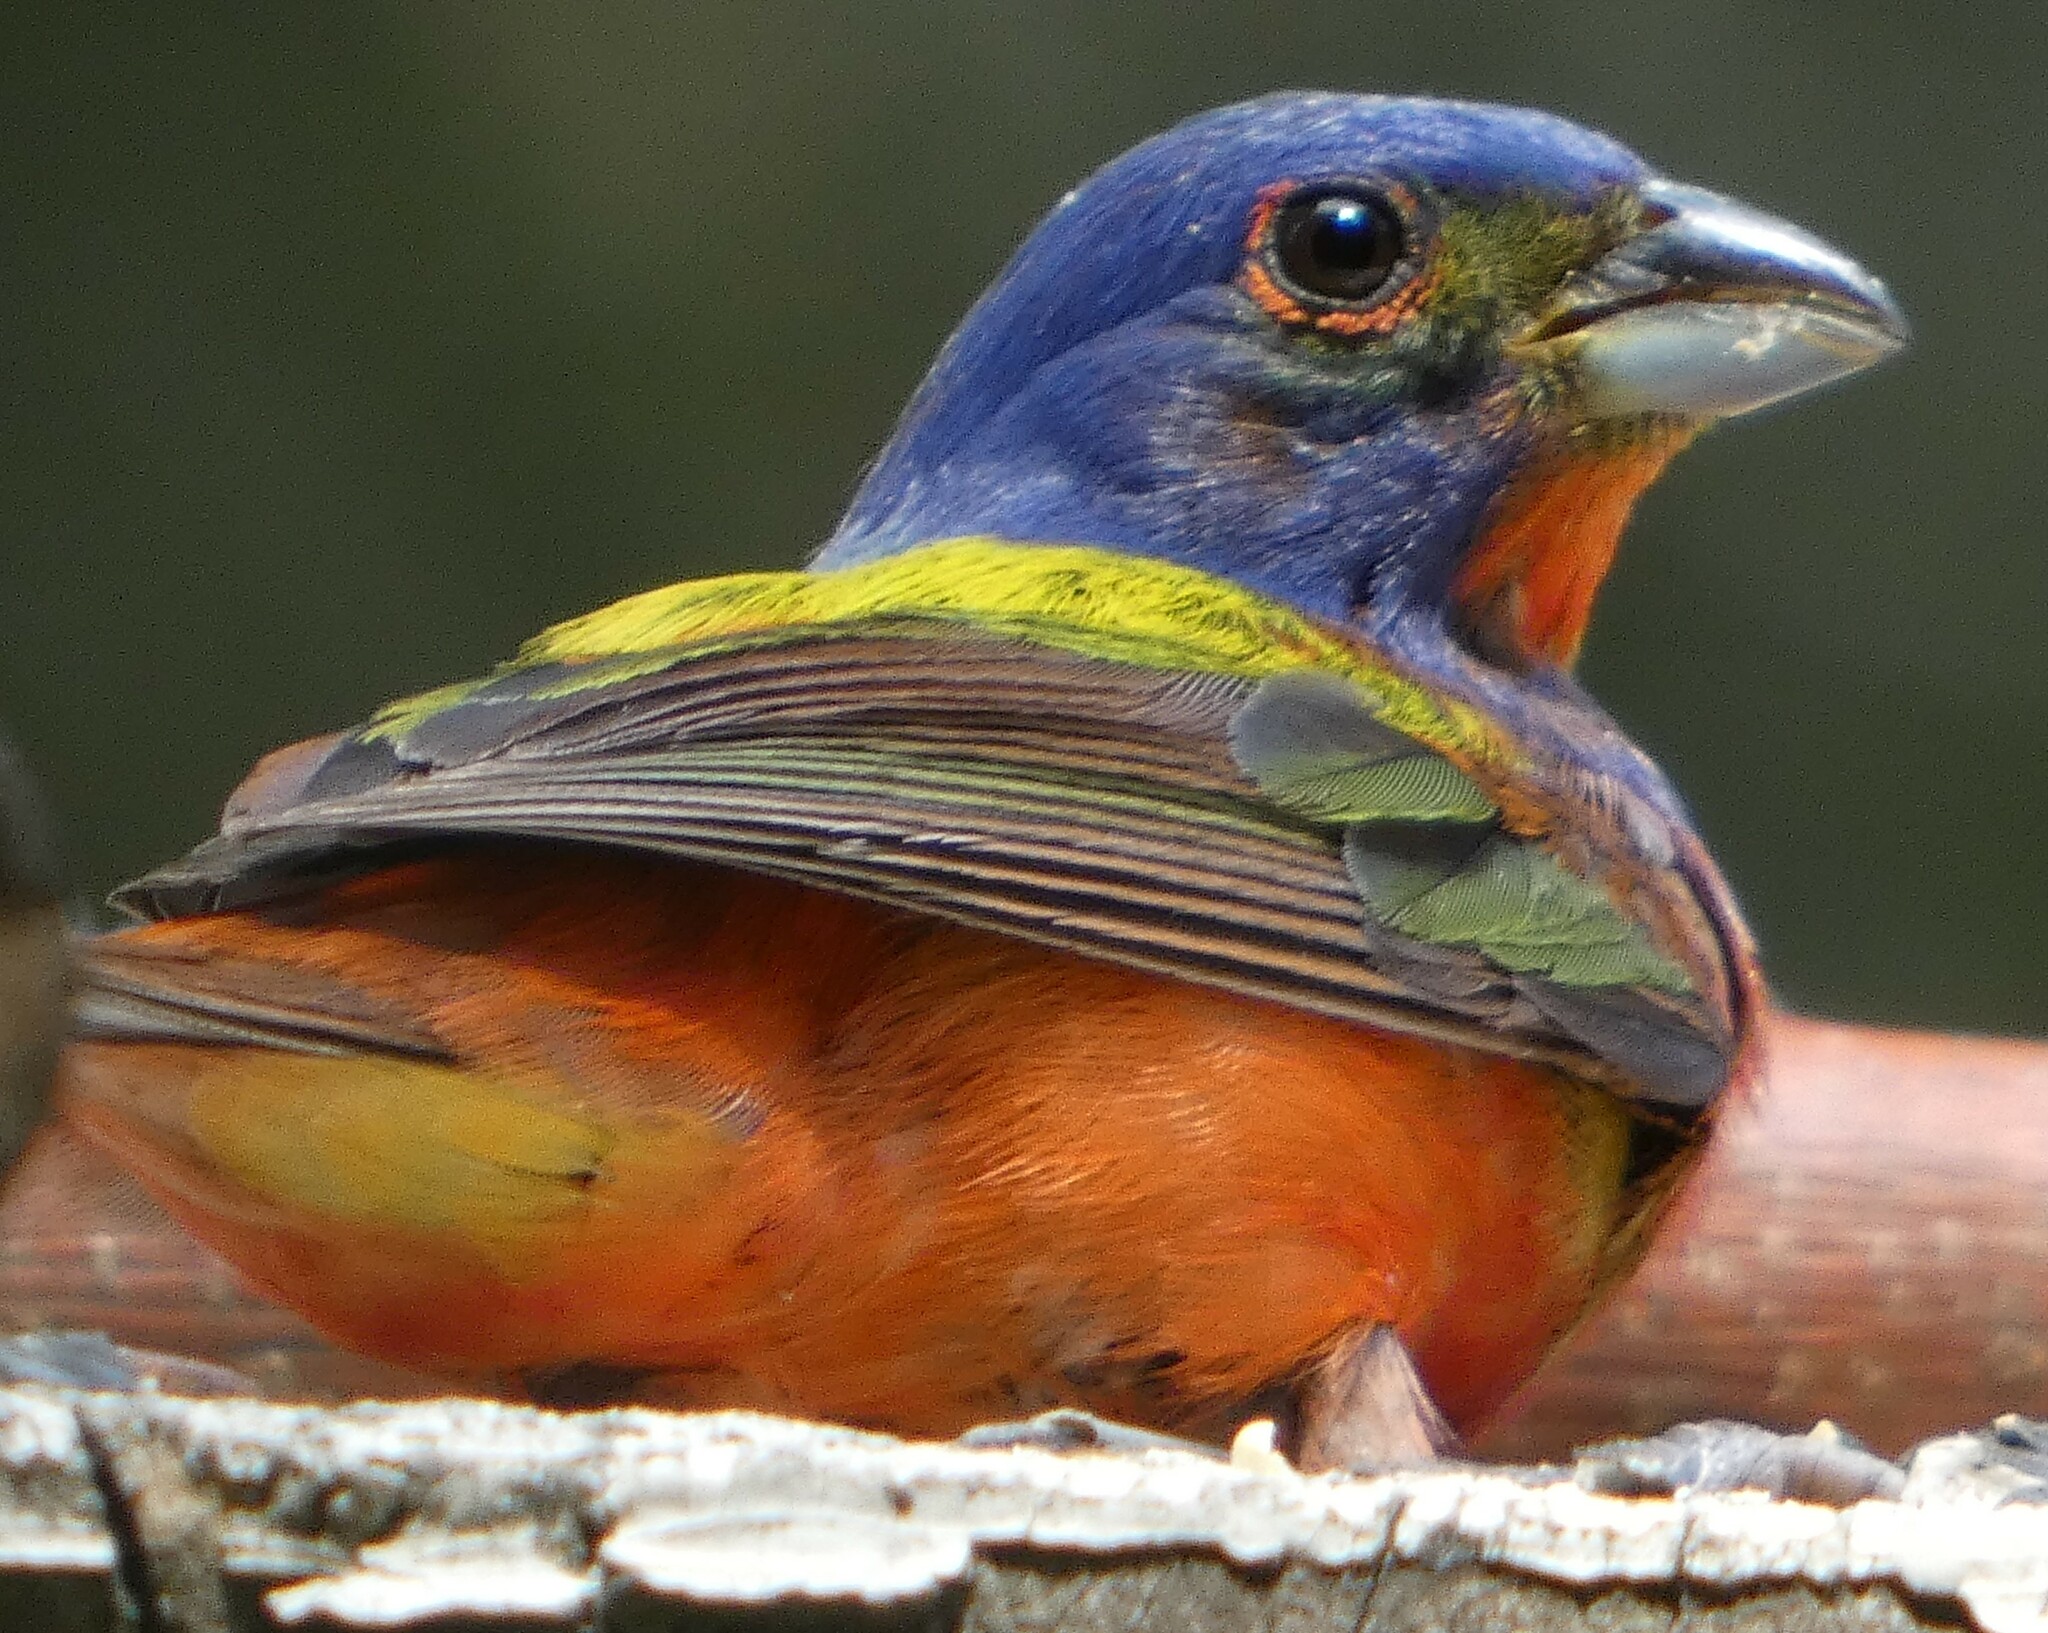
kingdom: Animalia
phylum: Chordata
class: Aves
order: Passeriformes
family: Cardinalidae
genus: Passerina
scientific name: Passerina ciris
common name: Painted bunting
